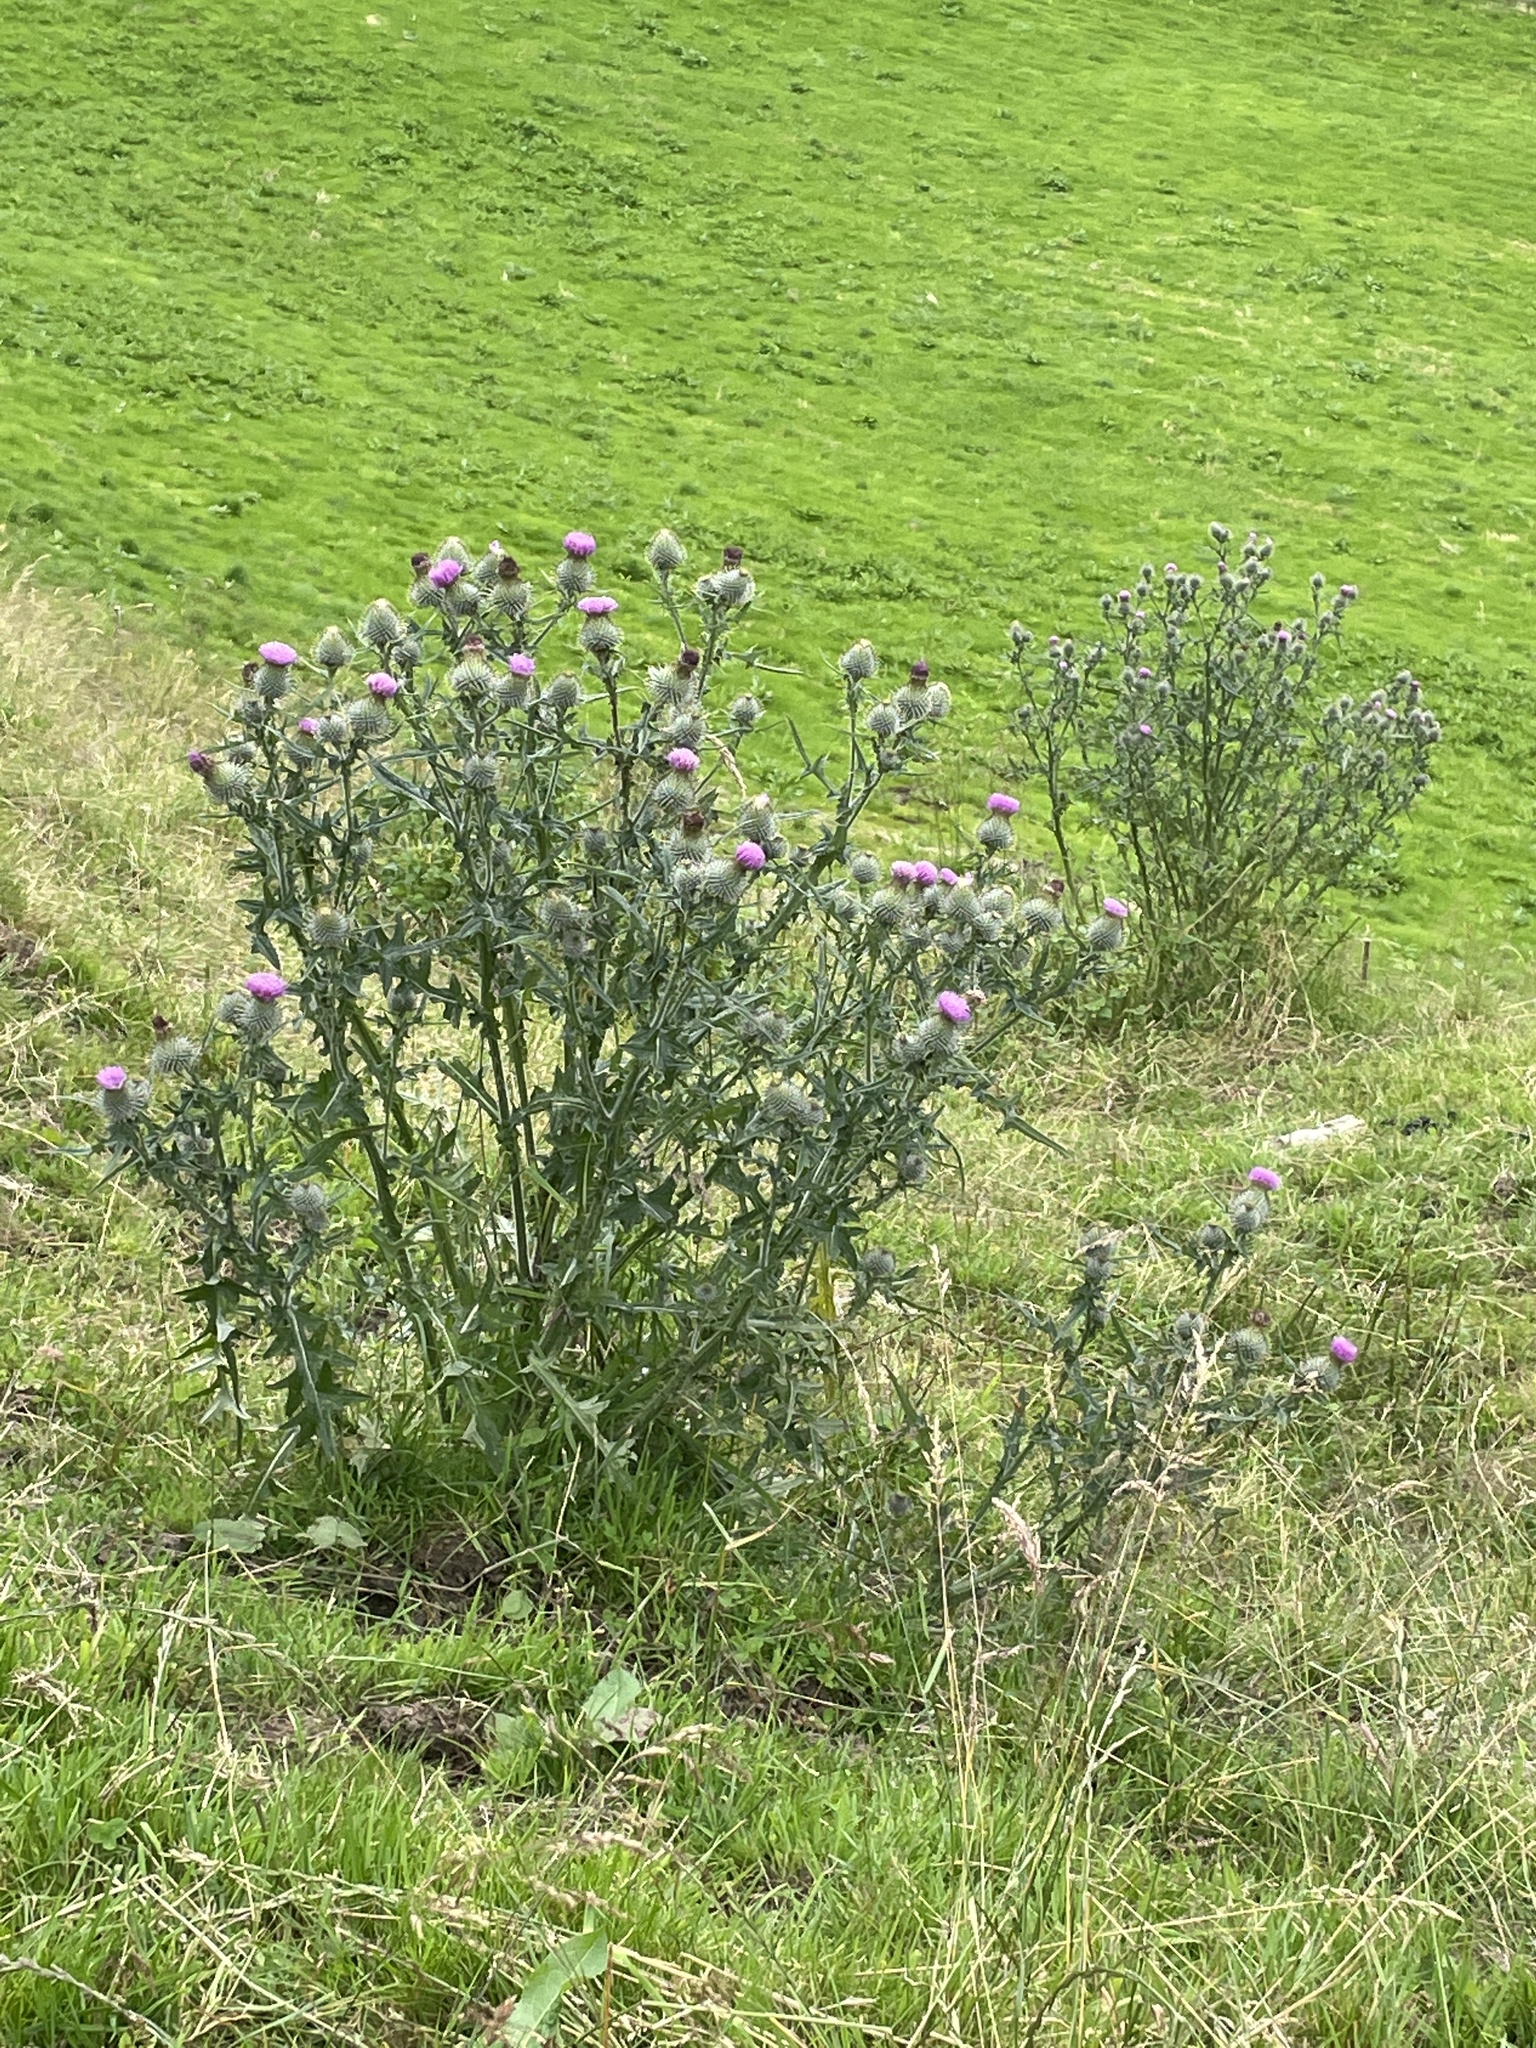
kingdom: Plantae
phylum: Tracheophyta
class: Magnoliopsida
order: Asterales
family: Asteraceae
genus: Cirsium
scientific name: Cirsium vulgare
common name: Bull thistle
